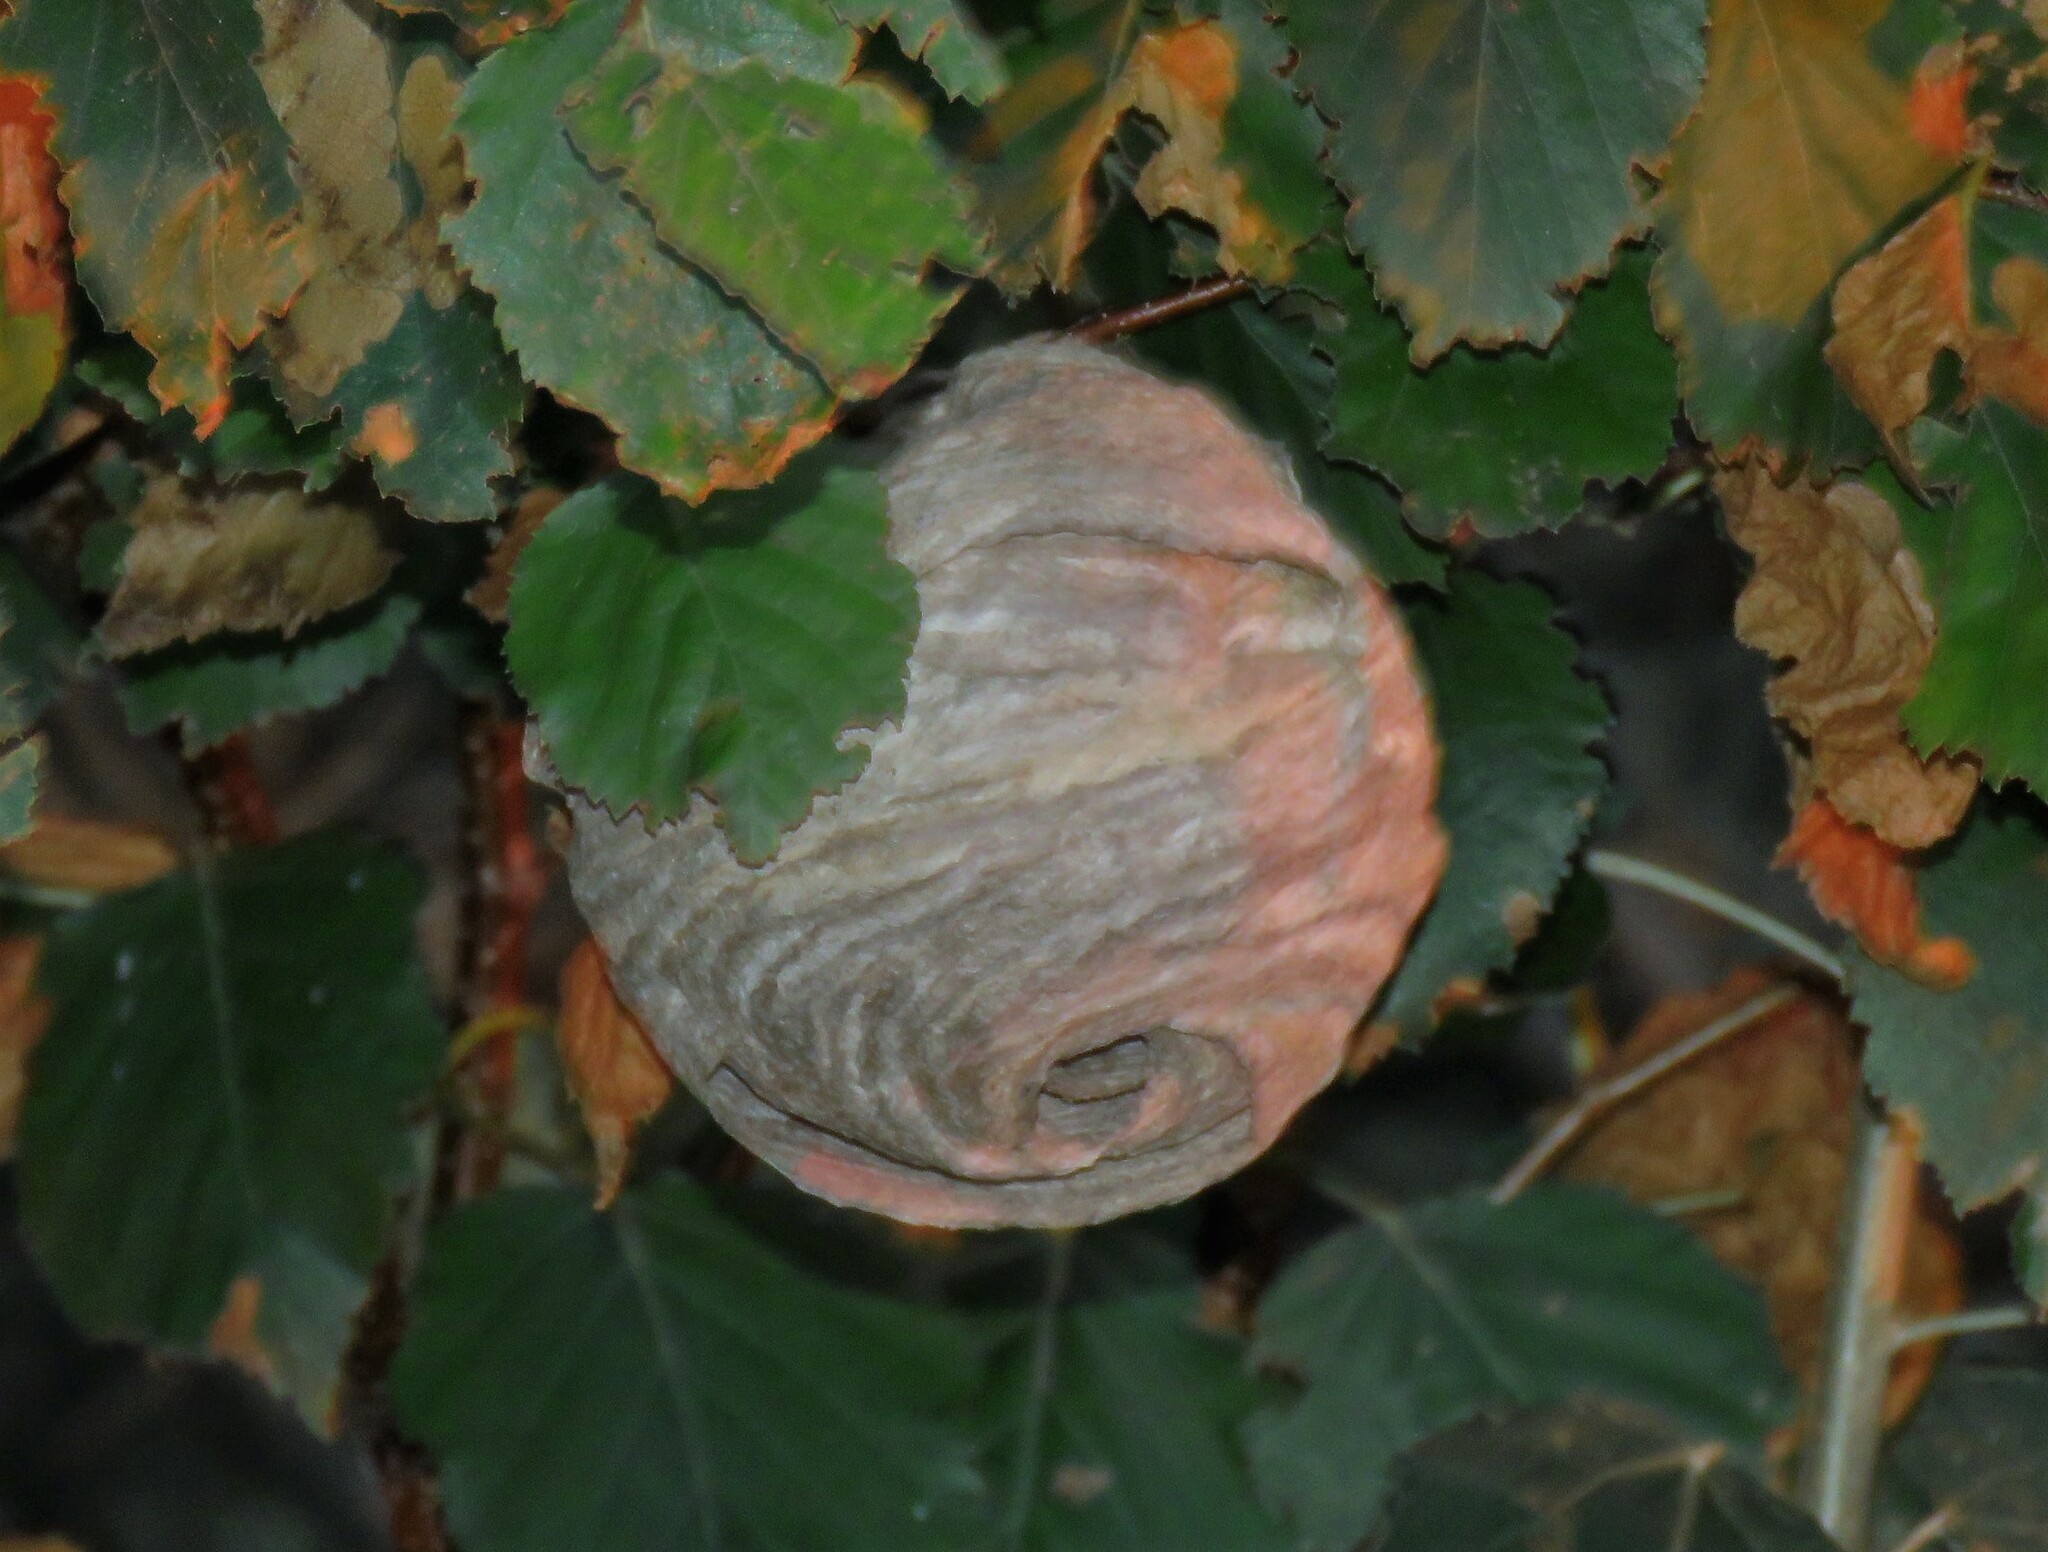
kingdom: Animalia
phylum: Arthropoda
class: Insecta
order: Hymenoptera
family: Vespidae
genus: Dolichovespula
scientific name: Dolichovespula maculata
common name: Bald-faced hornet
